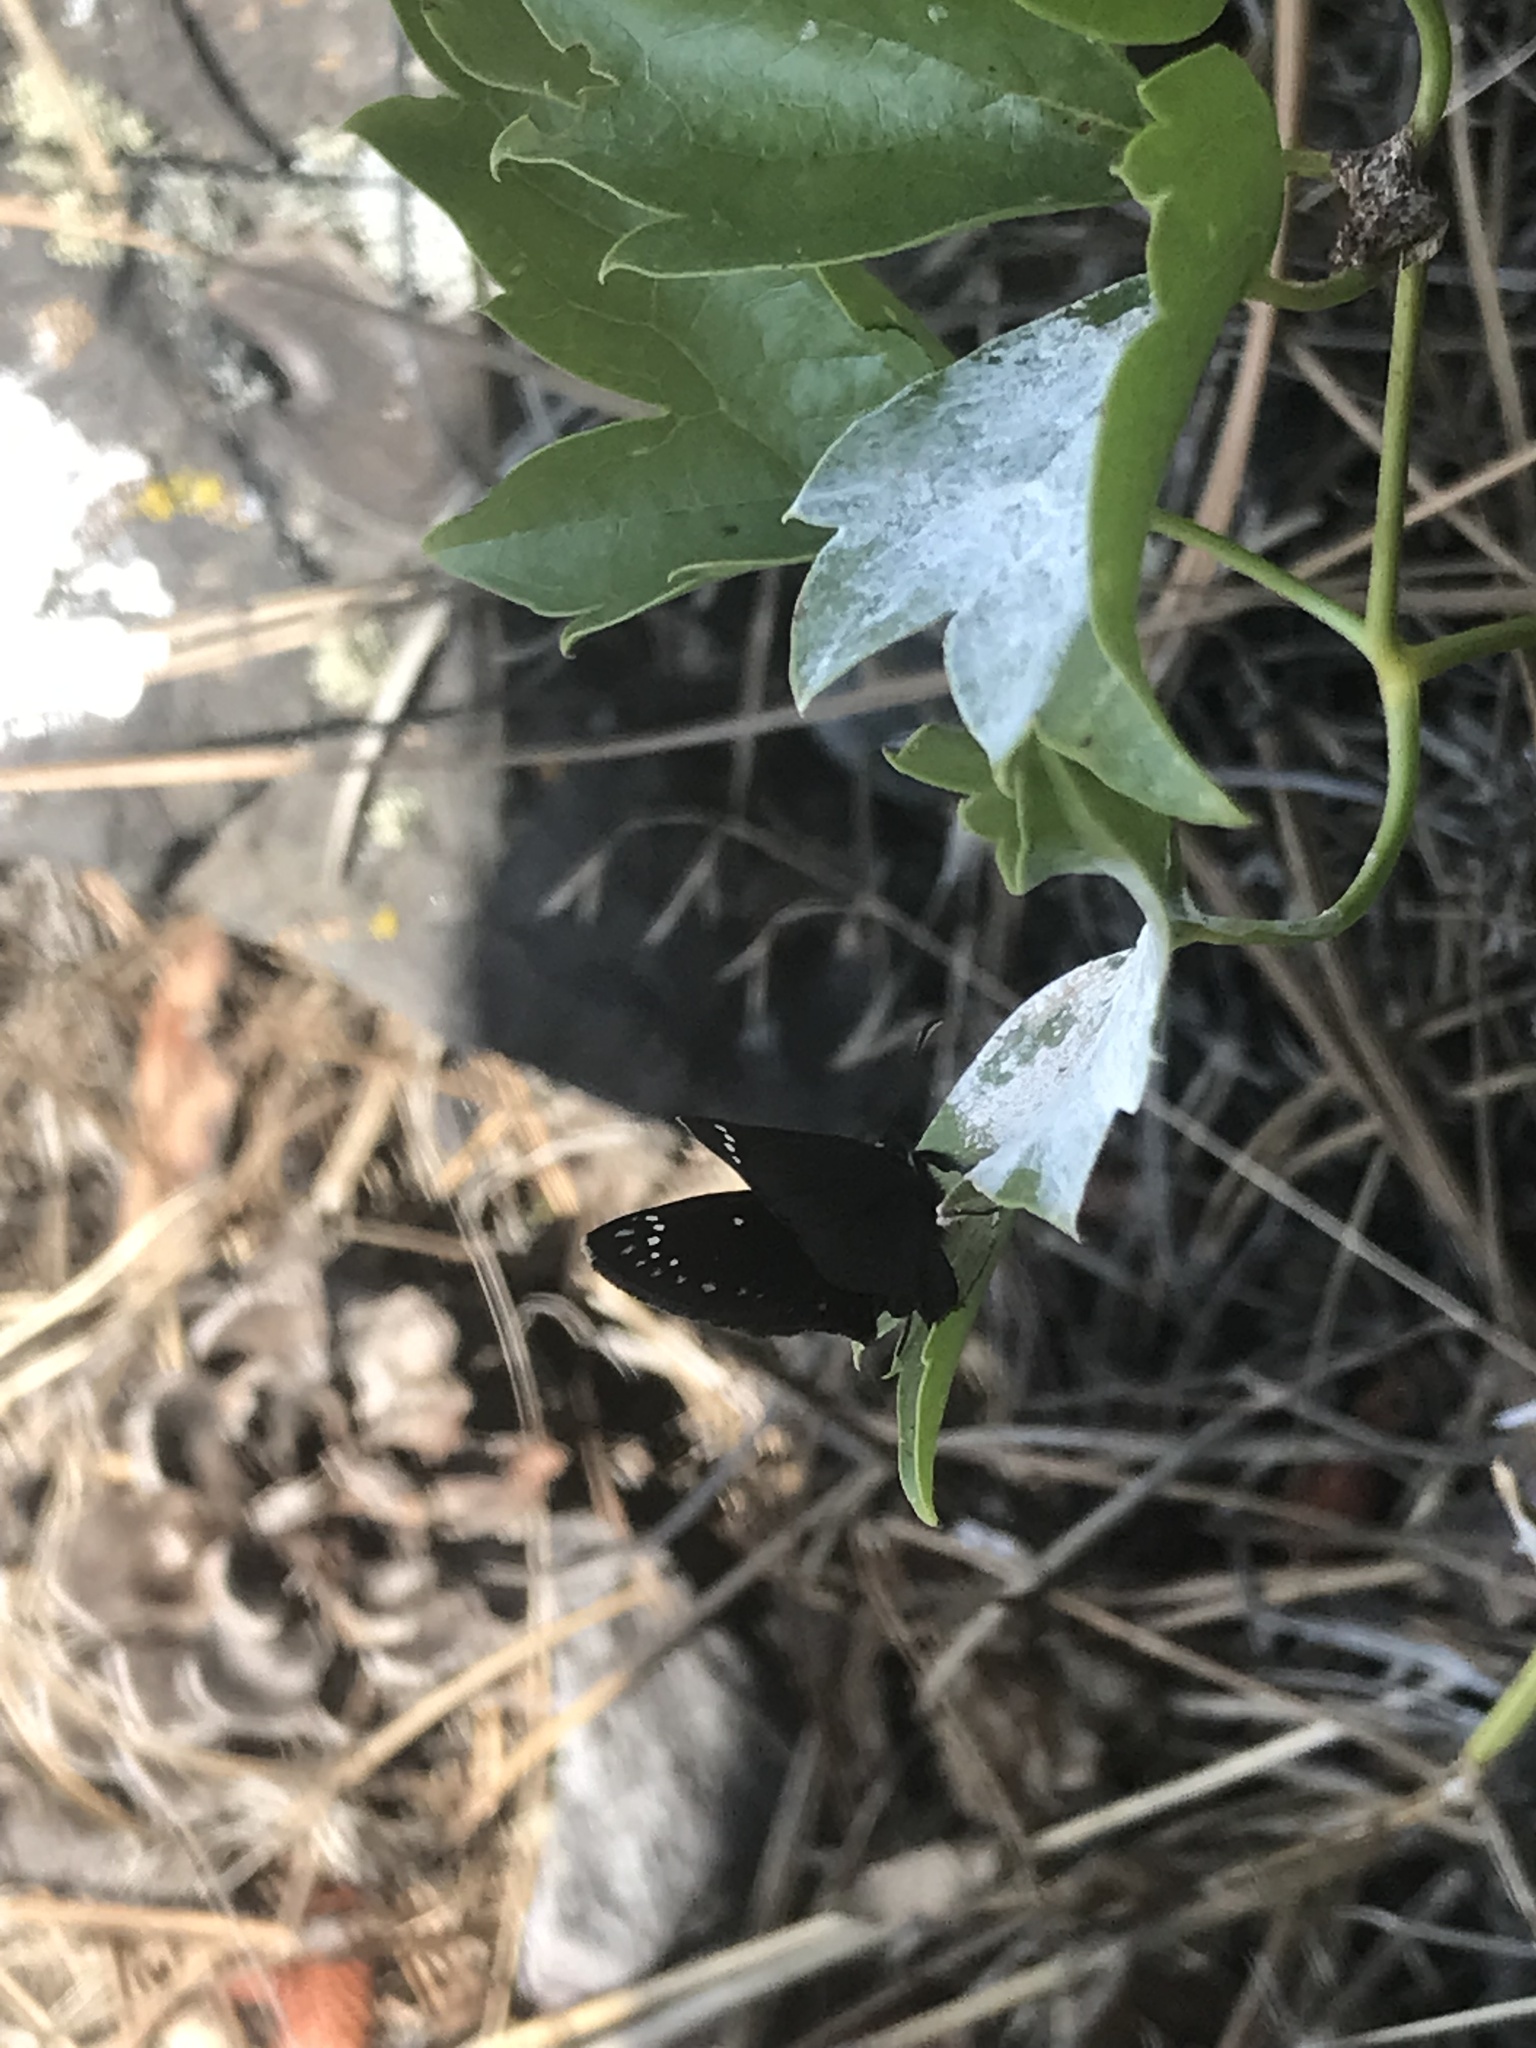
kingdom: Animalia
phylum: Arthropoda
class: Insecta
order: Lepidoptera
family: Hesperiidae
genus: Pholisora
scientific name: Pholisora catullus
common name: Common sootywing
